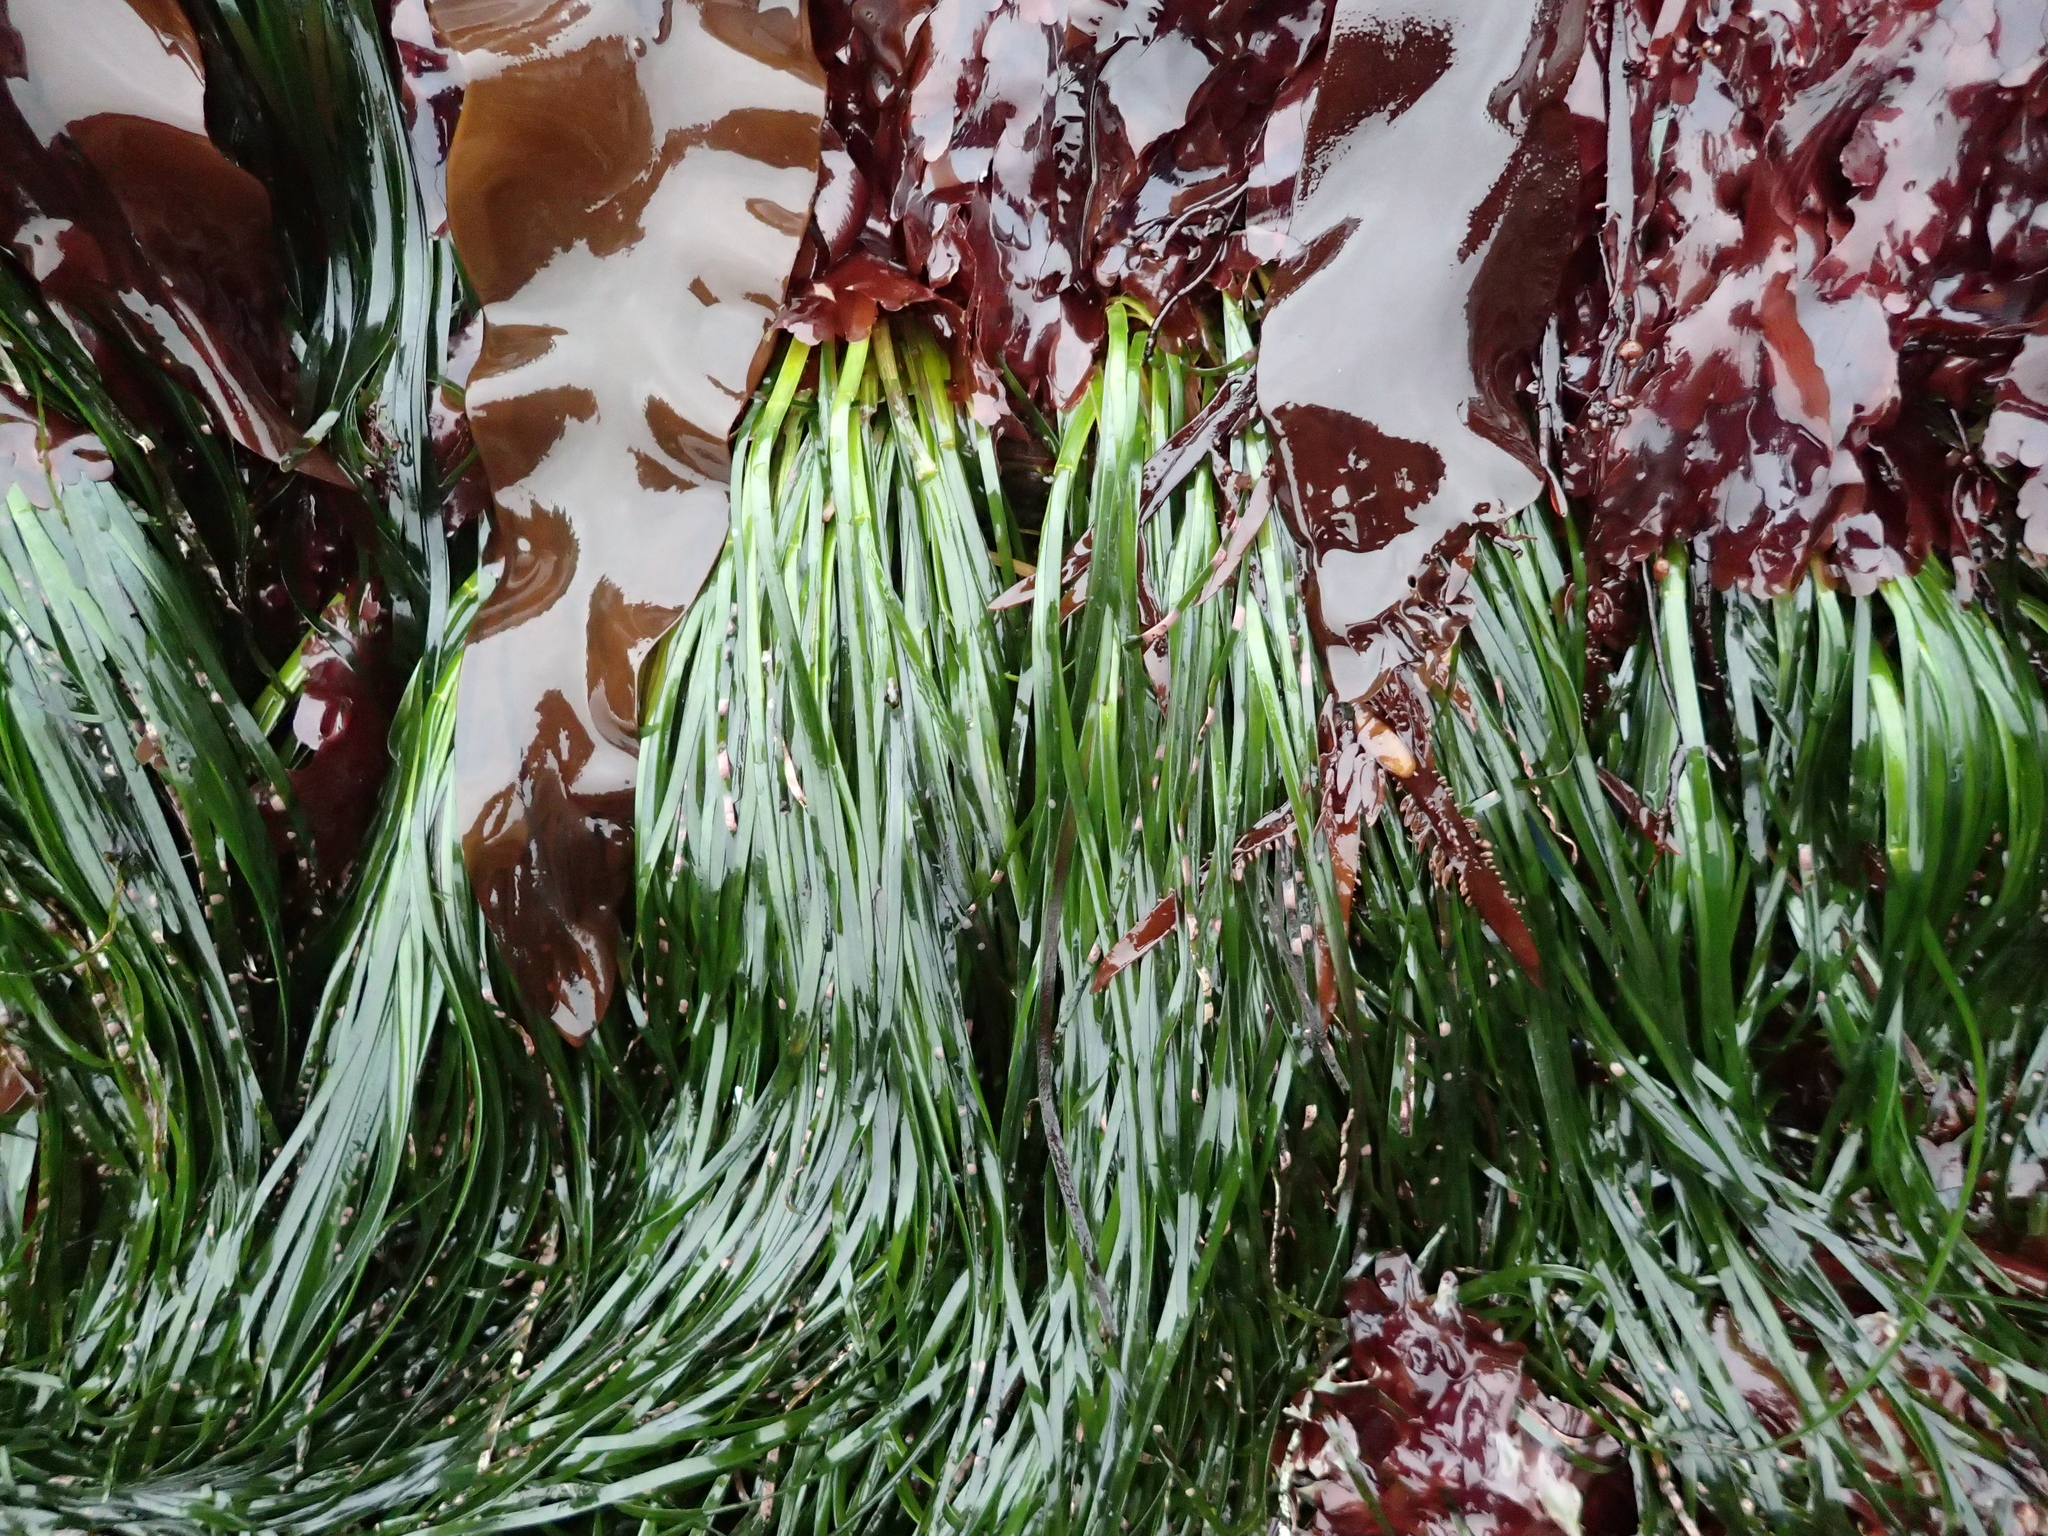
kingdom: Plantae
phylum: Tracheophyta
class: Liliopsida
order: Alismatales
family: Zosteraceae
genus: Phyllospadix
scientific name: Phyllospadix scouleri
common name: Species code: ps
